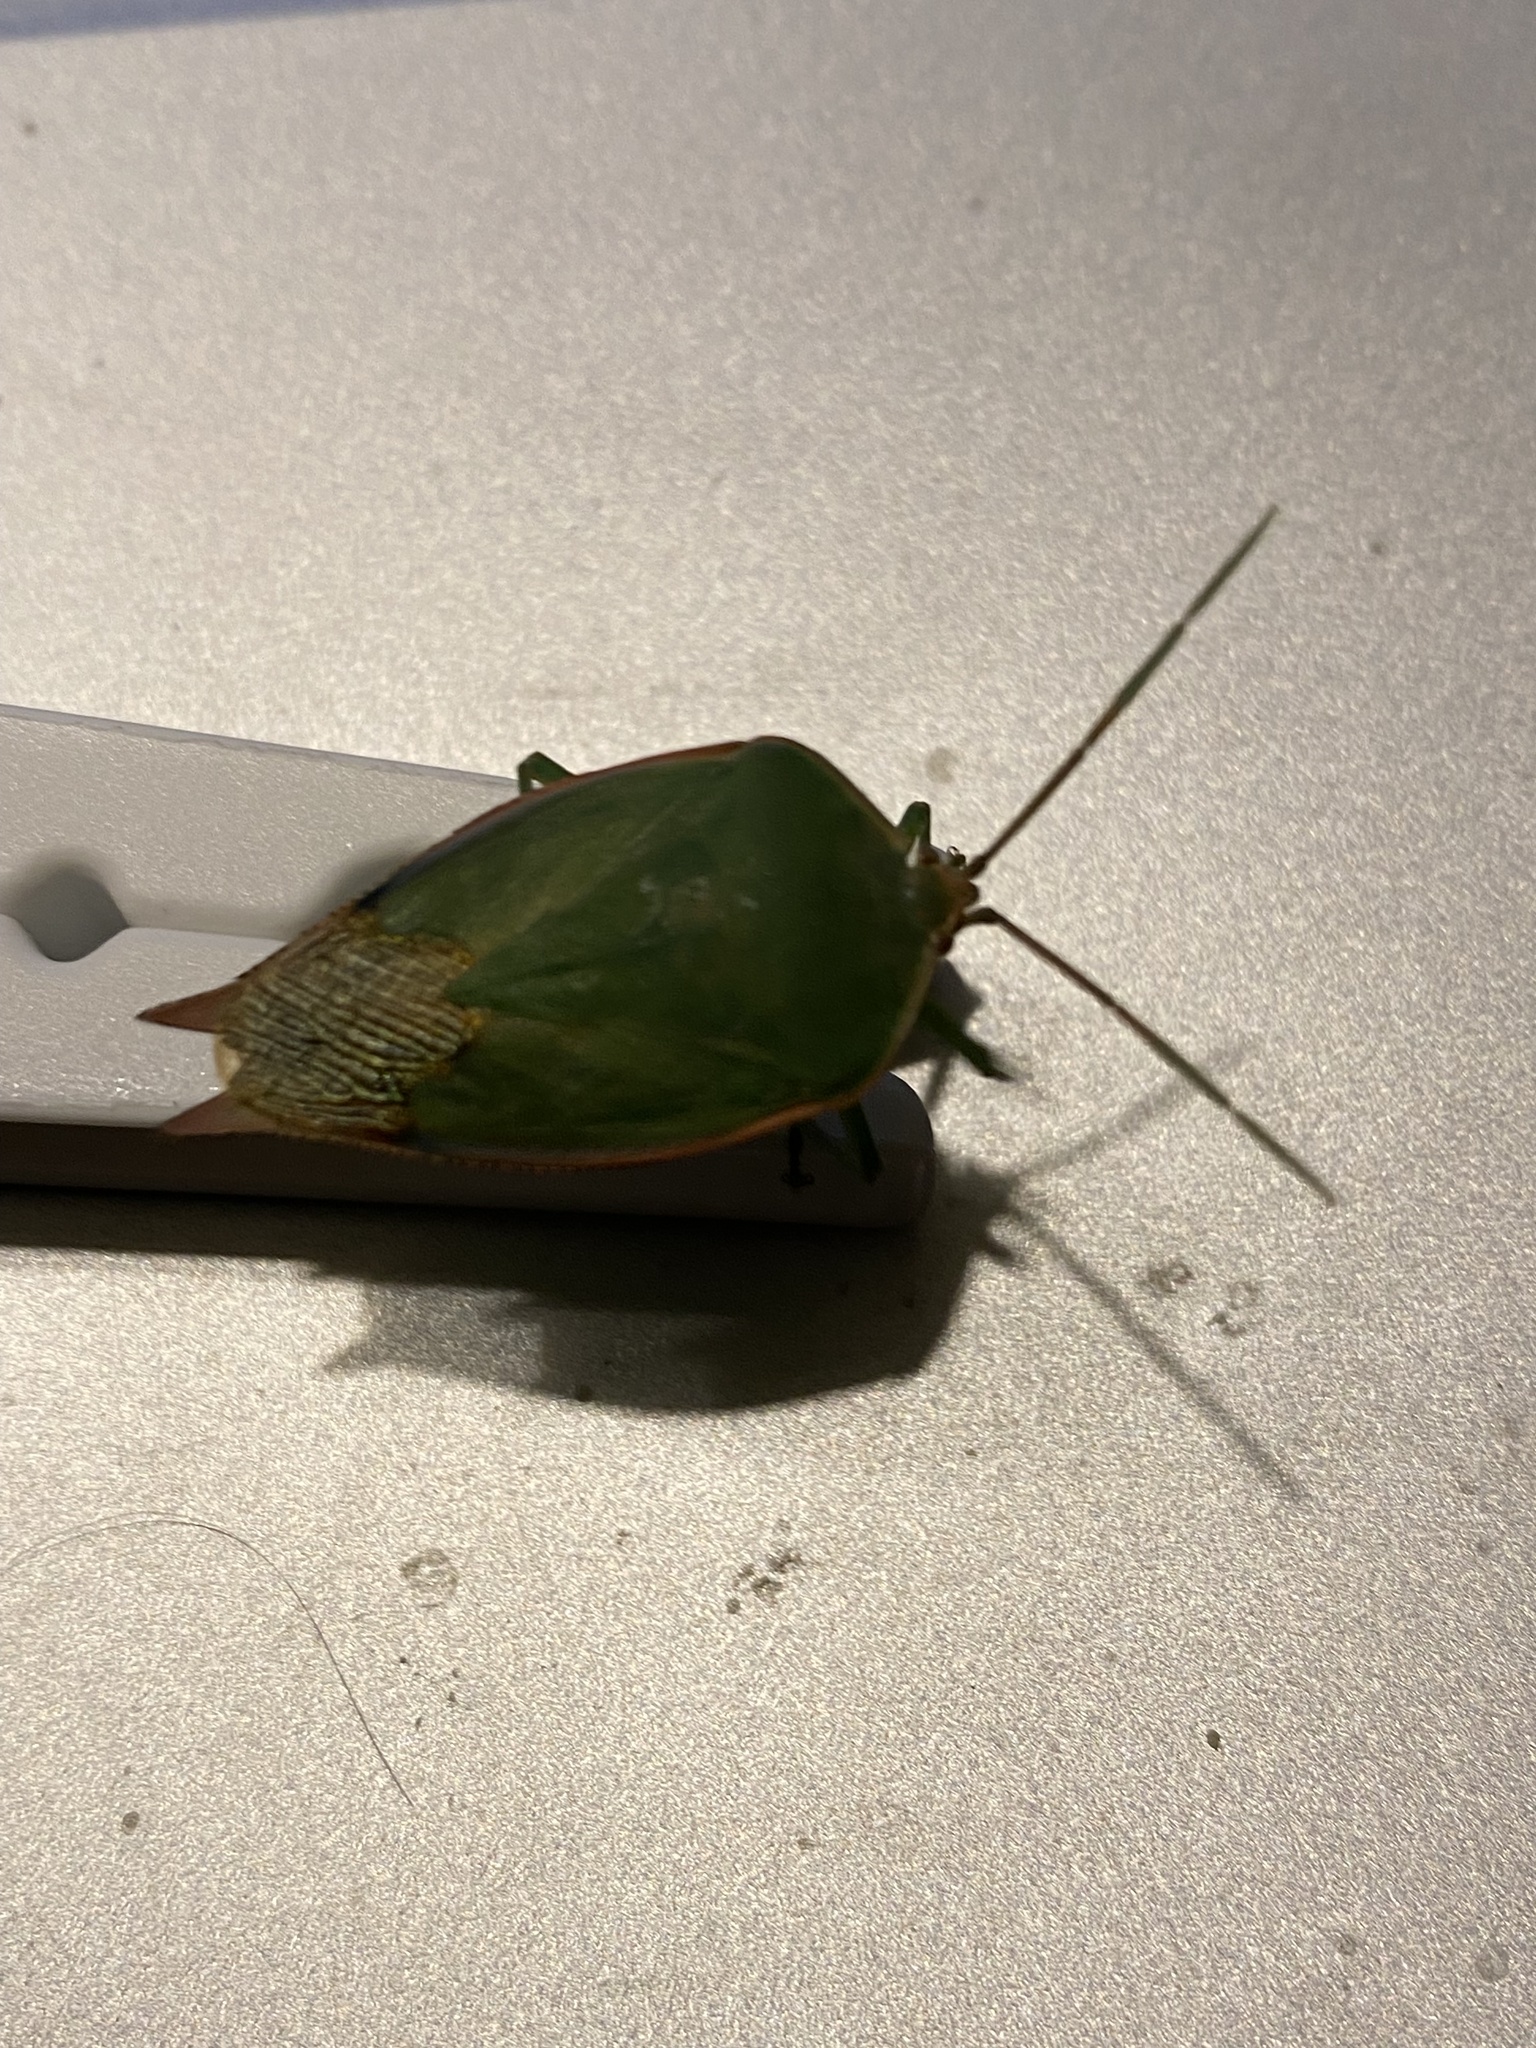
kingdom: Animalia
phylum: Arthropoda
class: Insecta
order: Hemiptera
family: Tessaratomidae
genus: Lyramorpha
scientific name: Lyramorpha rosea
